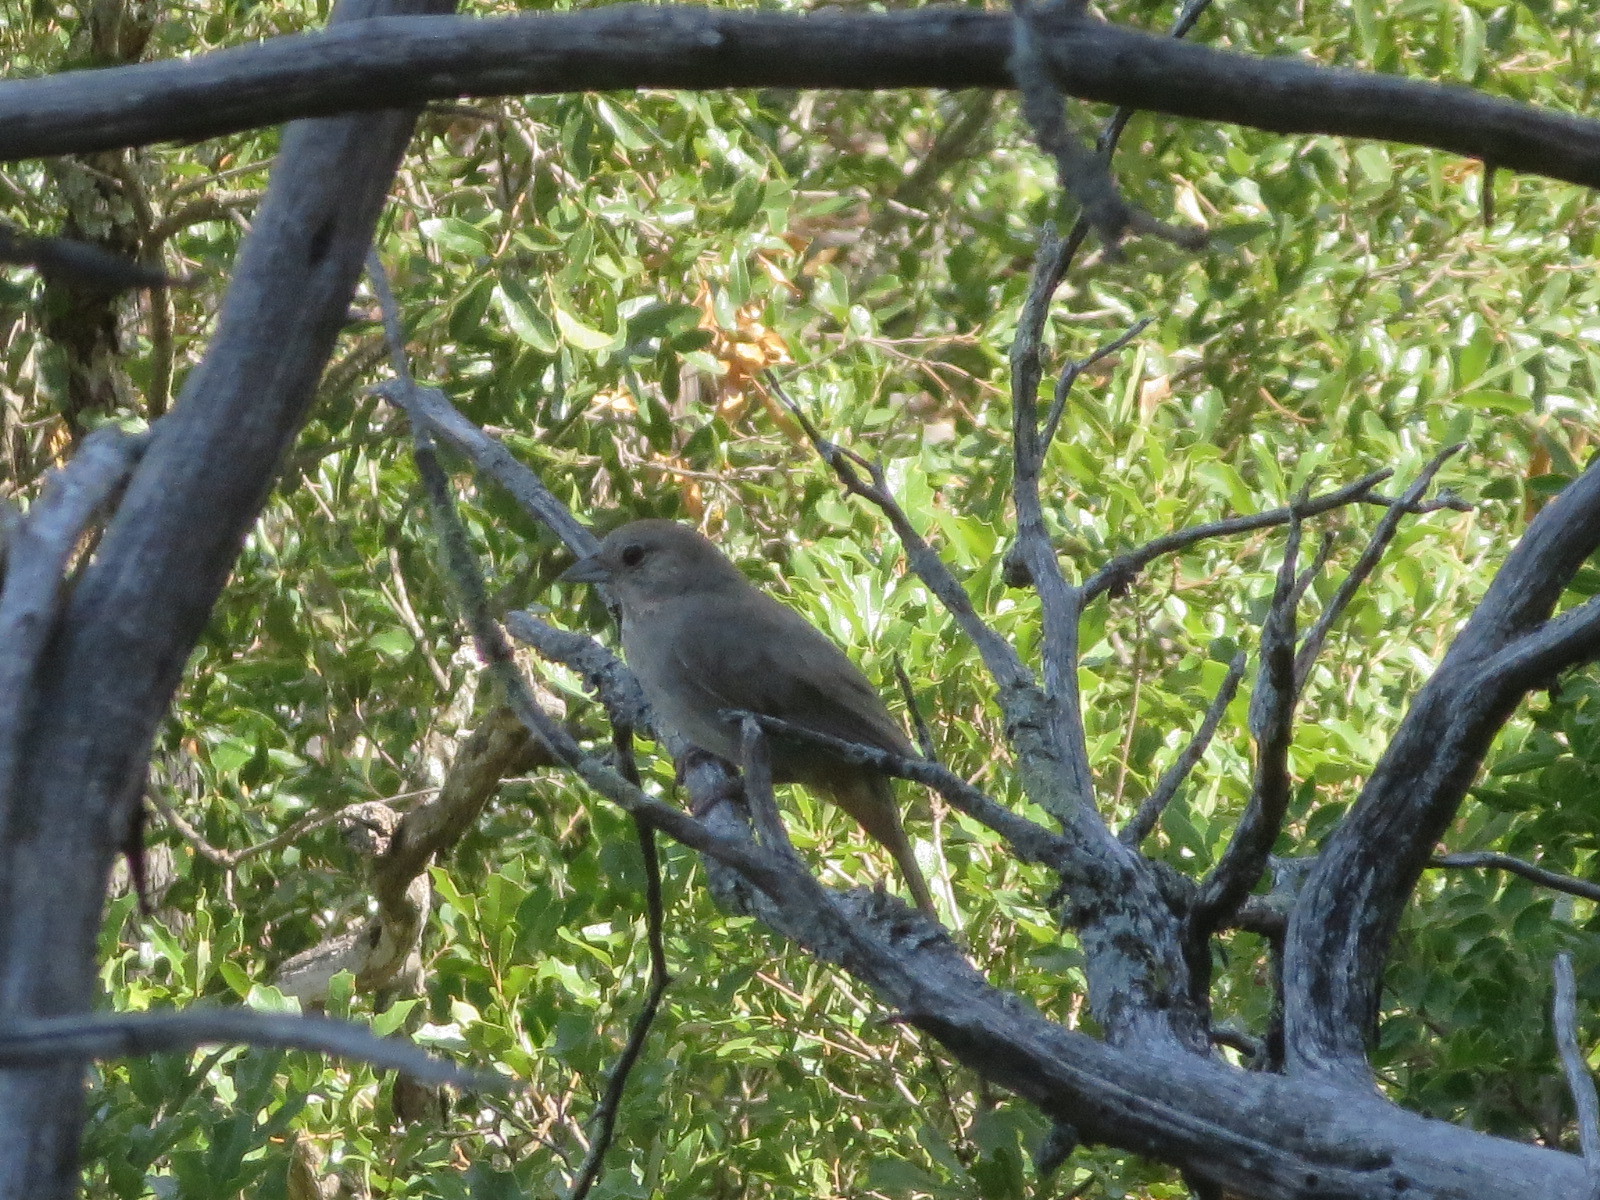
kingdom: Animalia
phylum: Chordata
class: Aves
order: Passeriformes
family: Passerellidae
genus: Melozone
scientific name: Melozone fusca
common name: Canyon towhee
